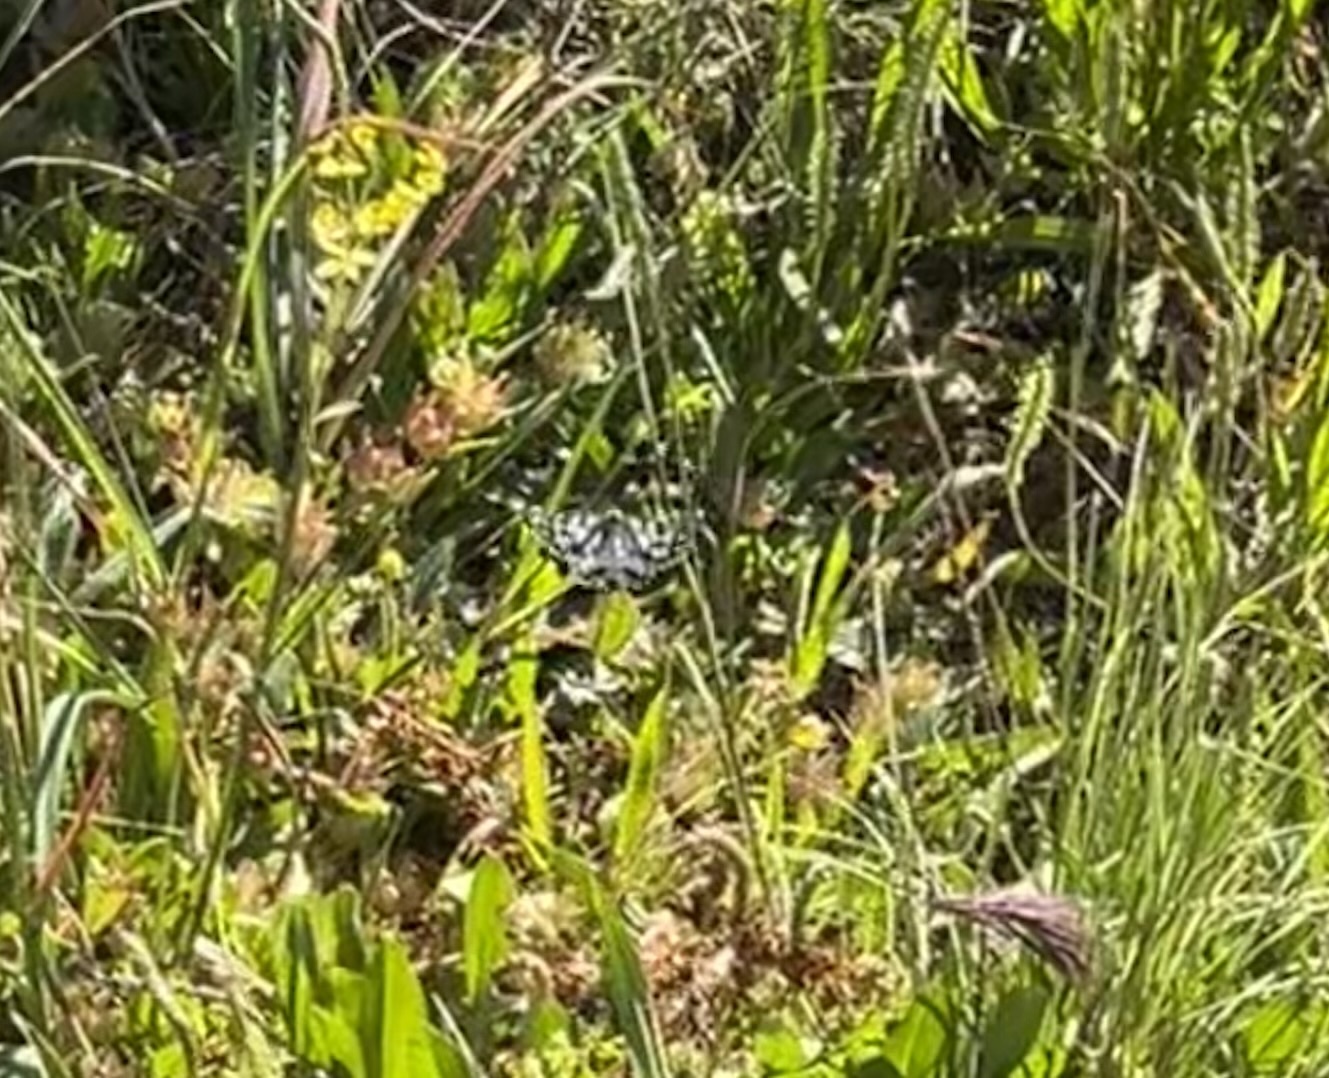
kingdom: Animalia
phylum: Arthropoda
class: Insecta
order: Lepidoptera
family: Nymphalidae
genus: Melanargia
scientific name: Melanargia ines
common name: Spanish marbled white
